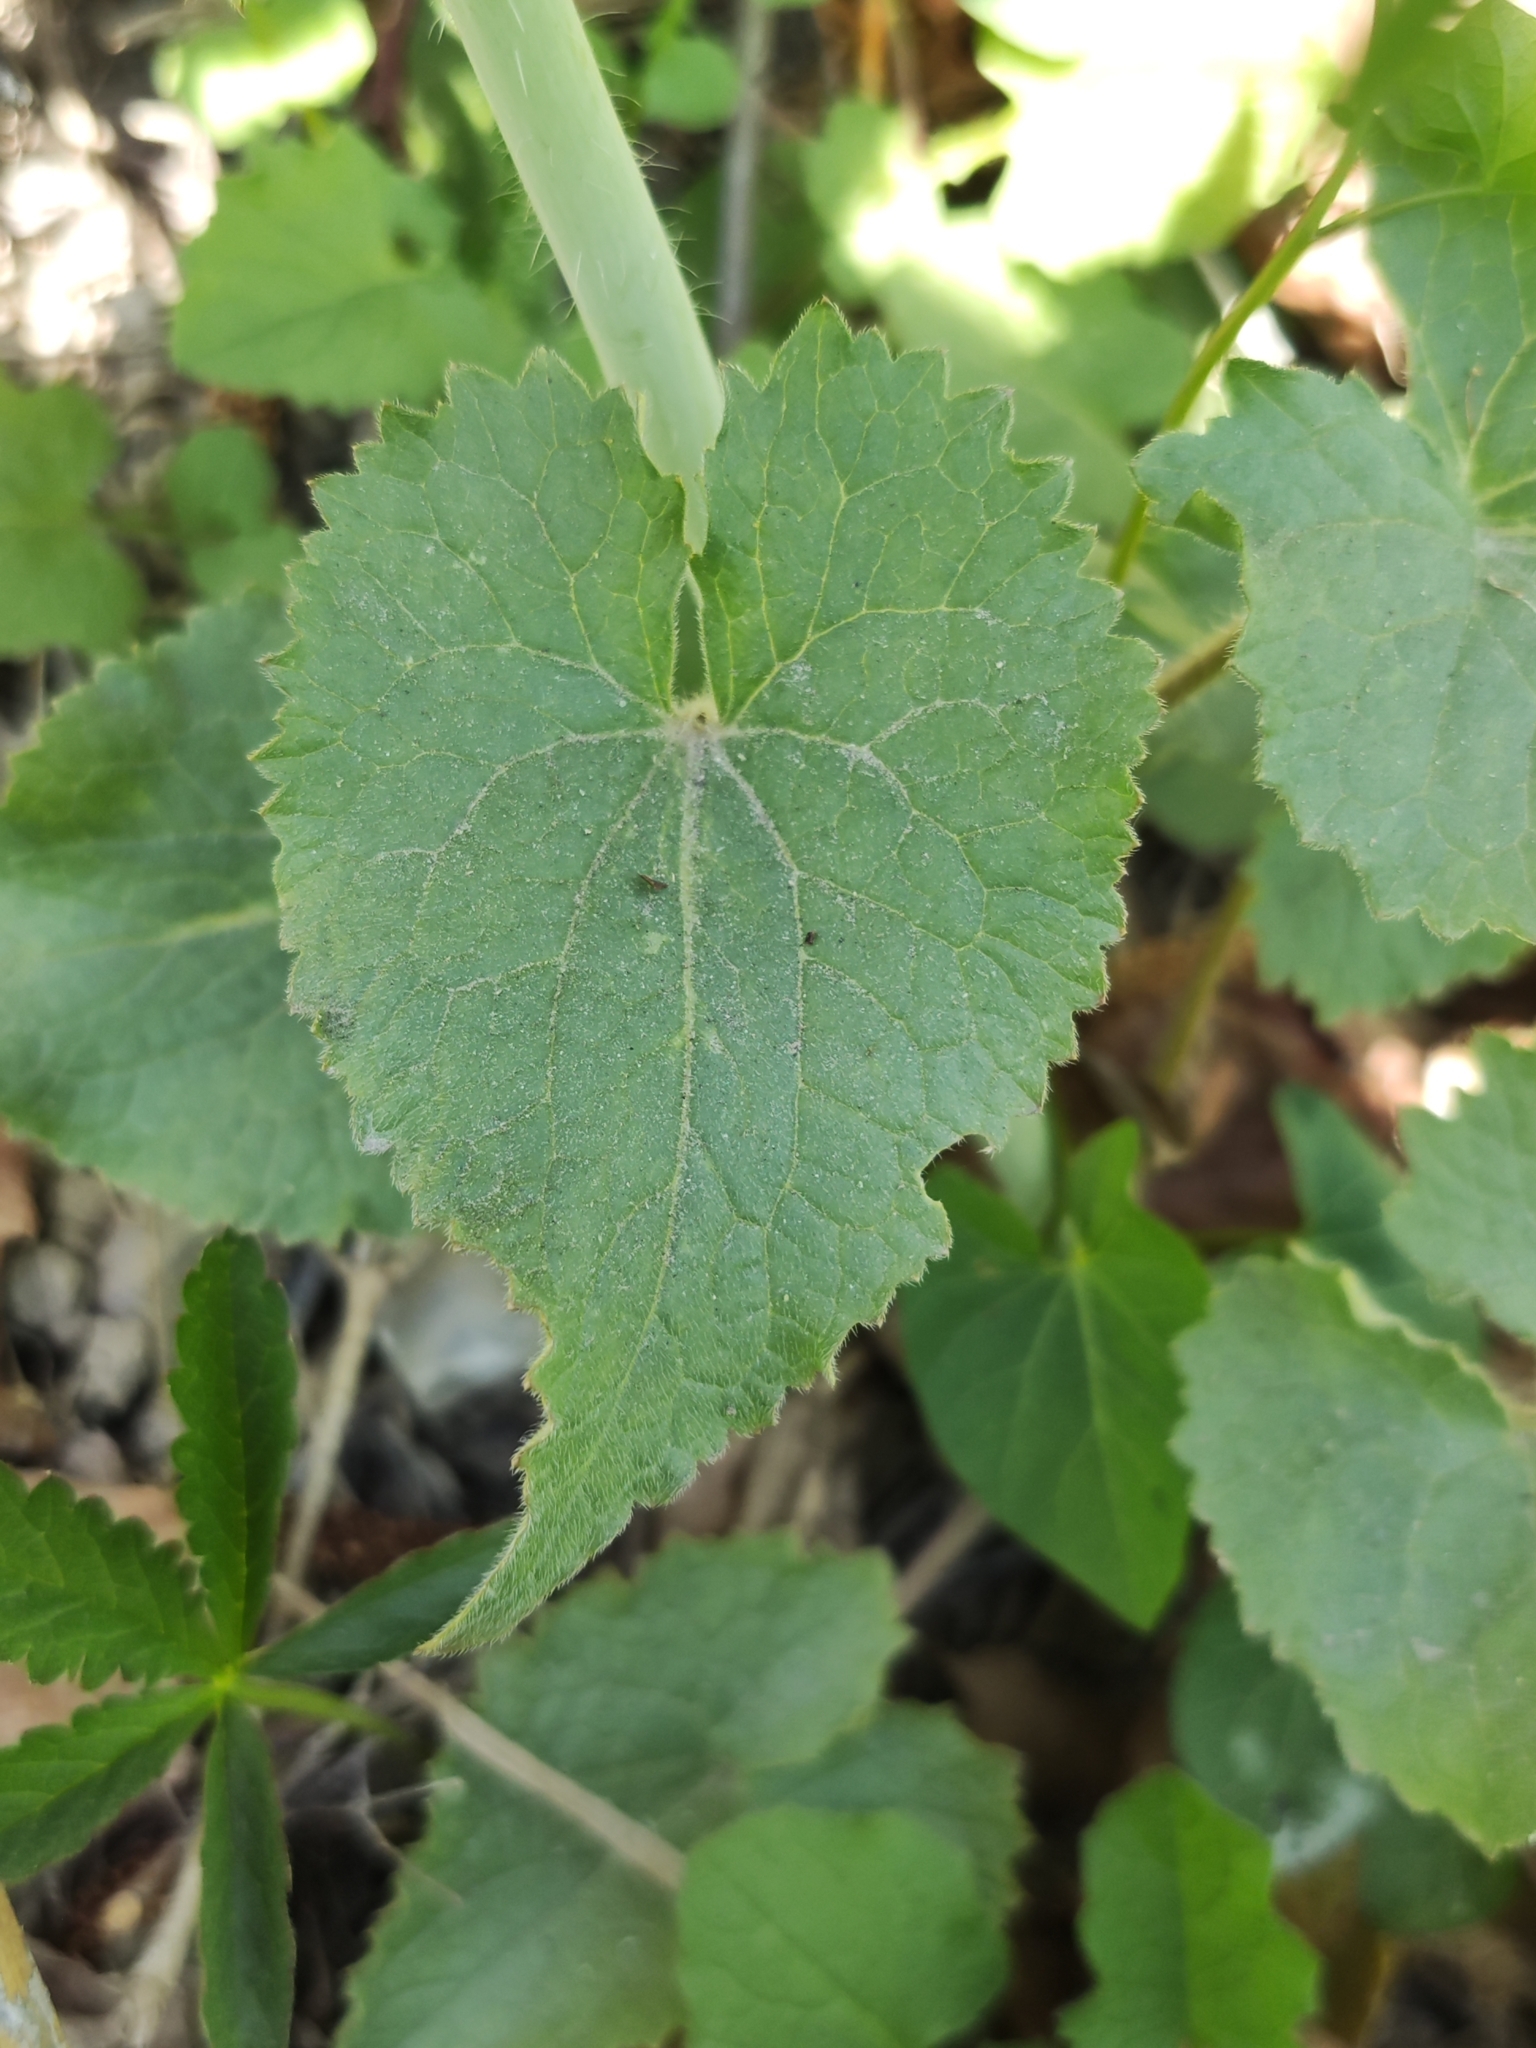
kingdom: Plantae
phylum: Tracheophyta
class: Magnoliopsida
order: Brassicales
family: Brassicaceae
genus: Lunaria
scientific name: Lunaria annua
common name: Honesty
